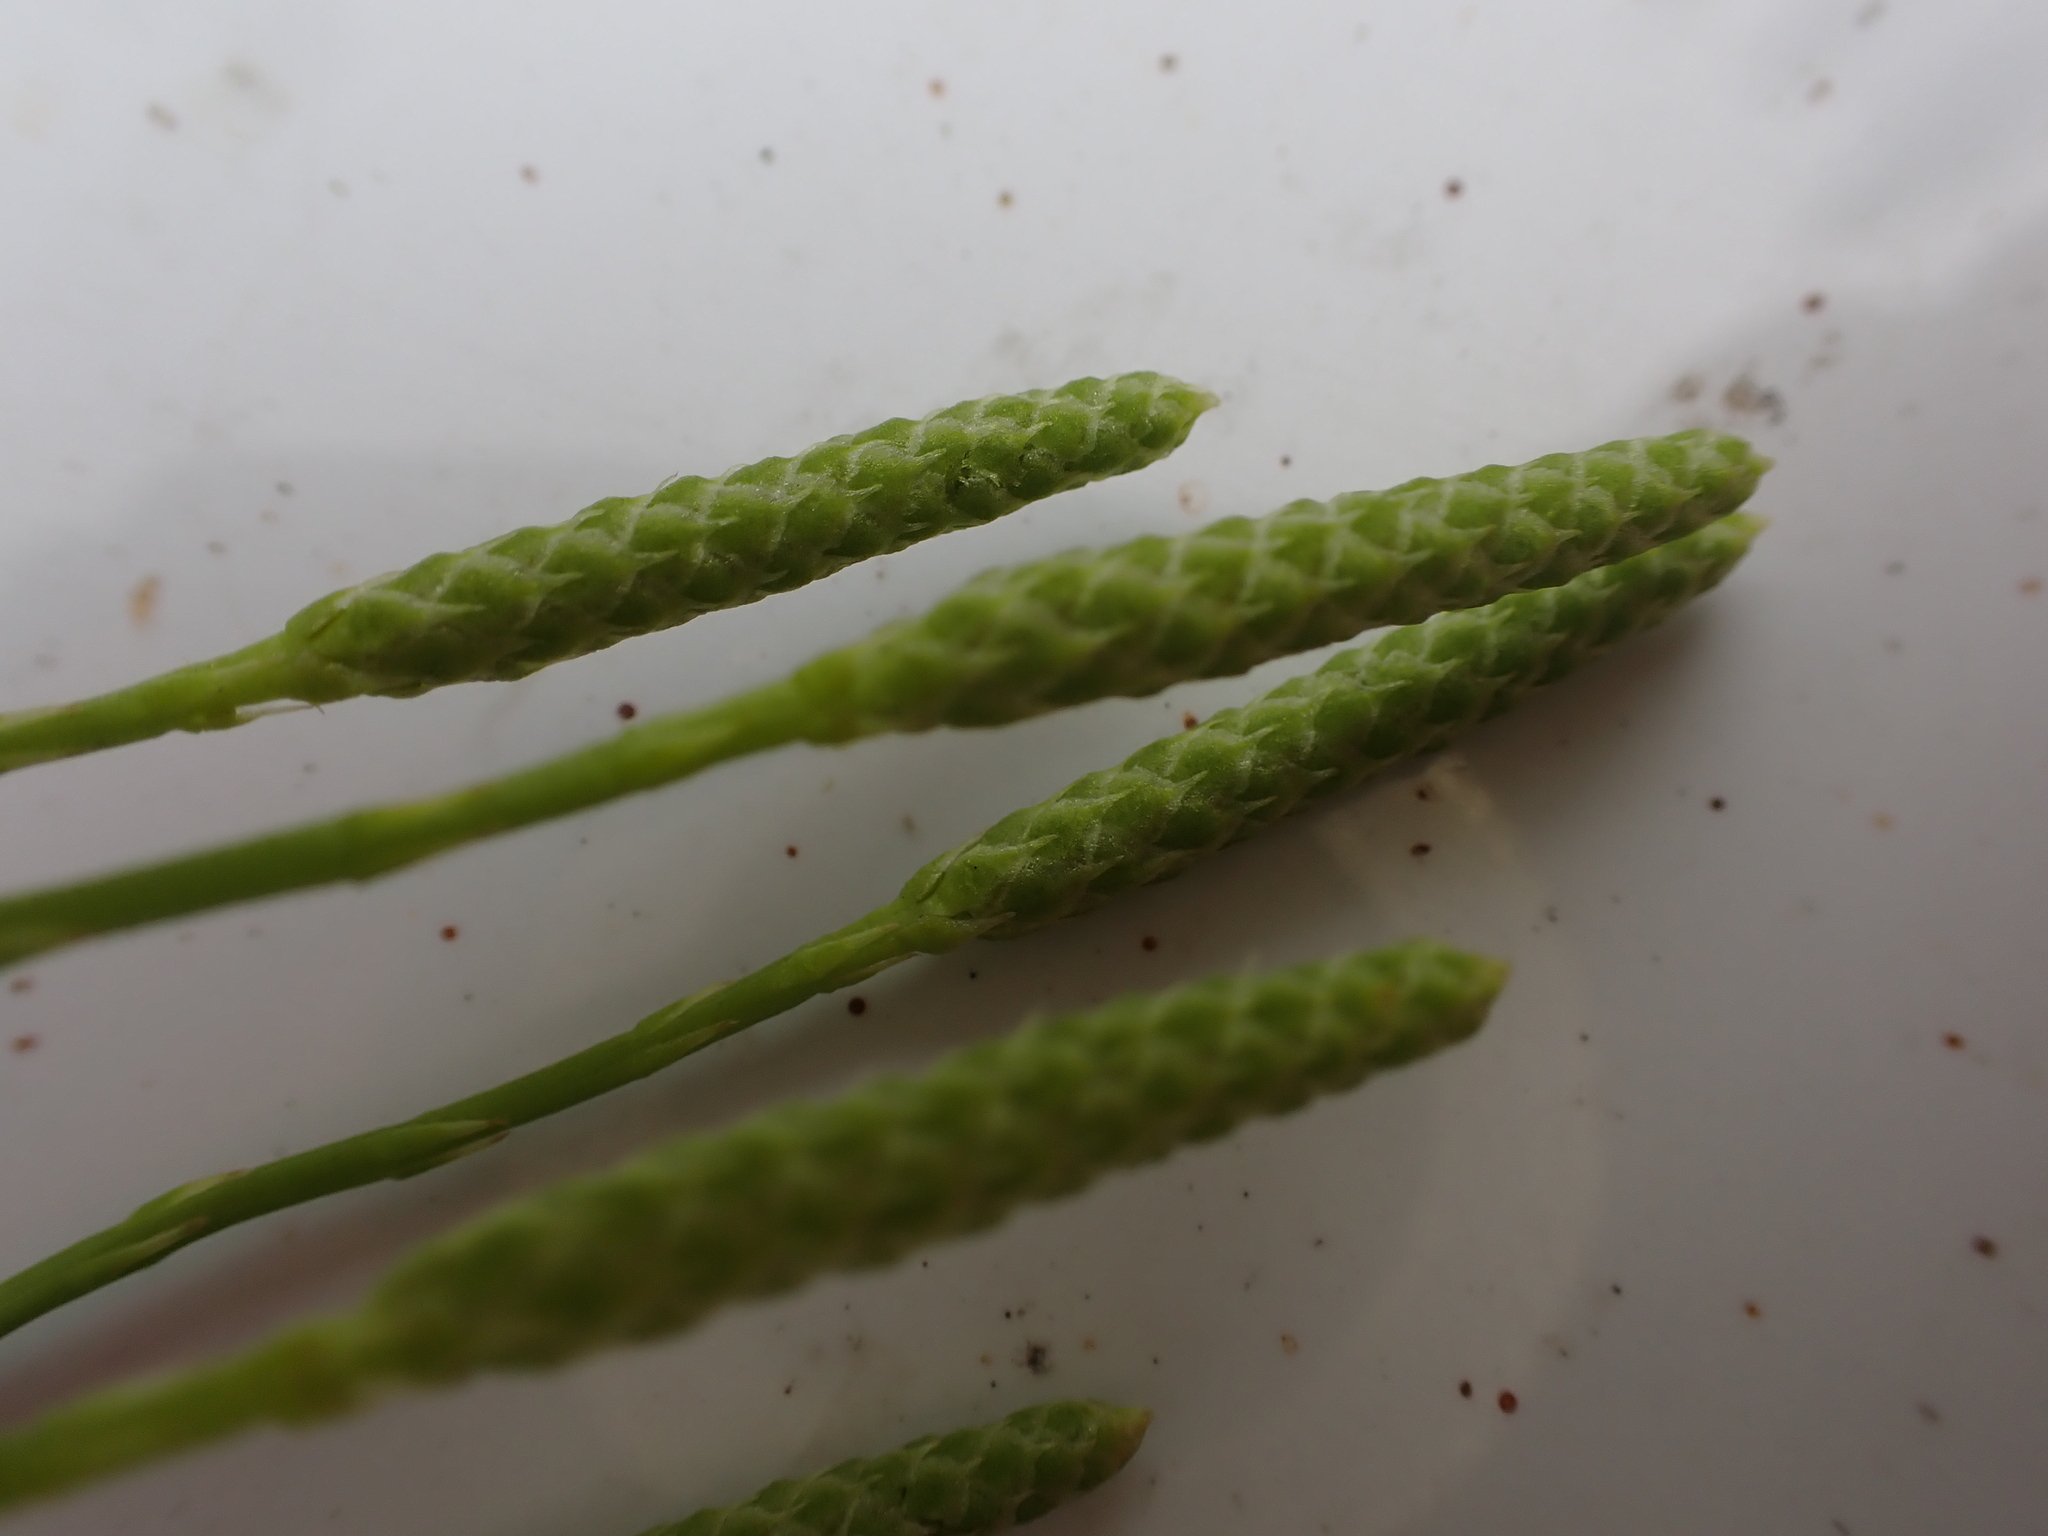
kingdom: Plantae
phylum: Tracheophyta
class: Lycopodiopsida
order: Lycopodiales
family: Lycopodiaceae
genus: Diphasiastrum
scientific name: Diphasiastrum complanatum
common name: Northern running-pine
